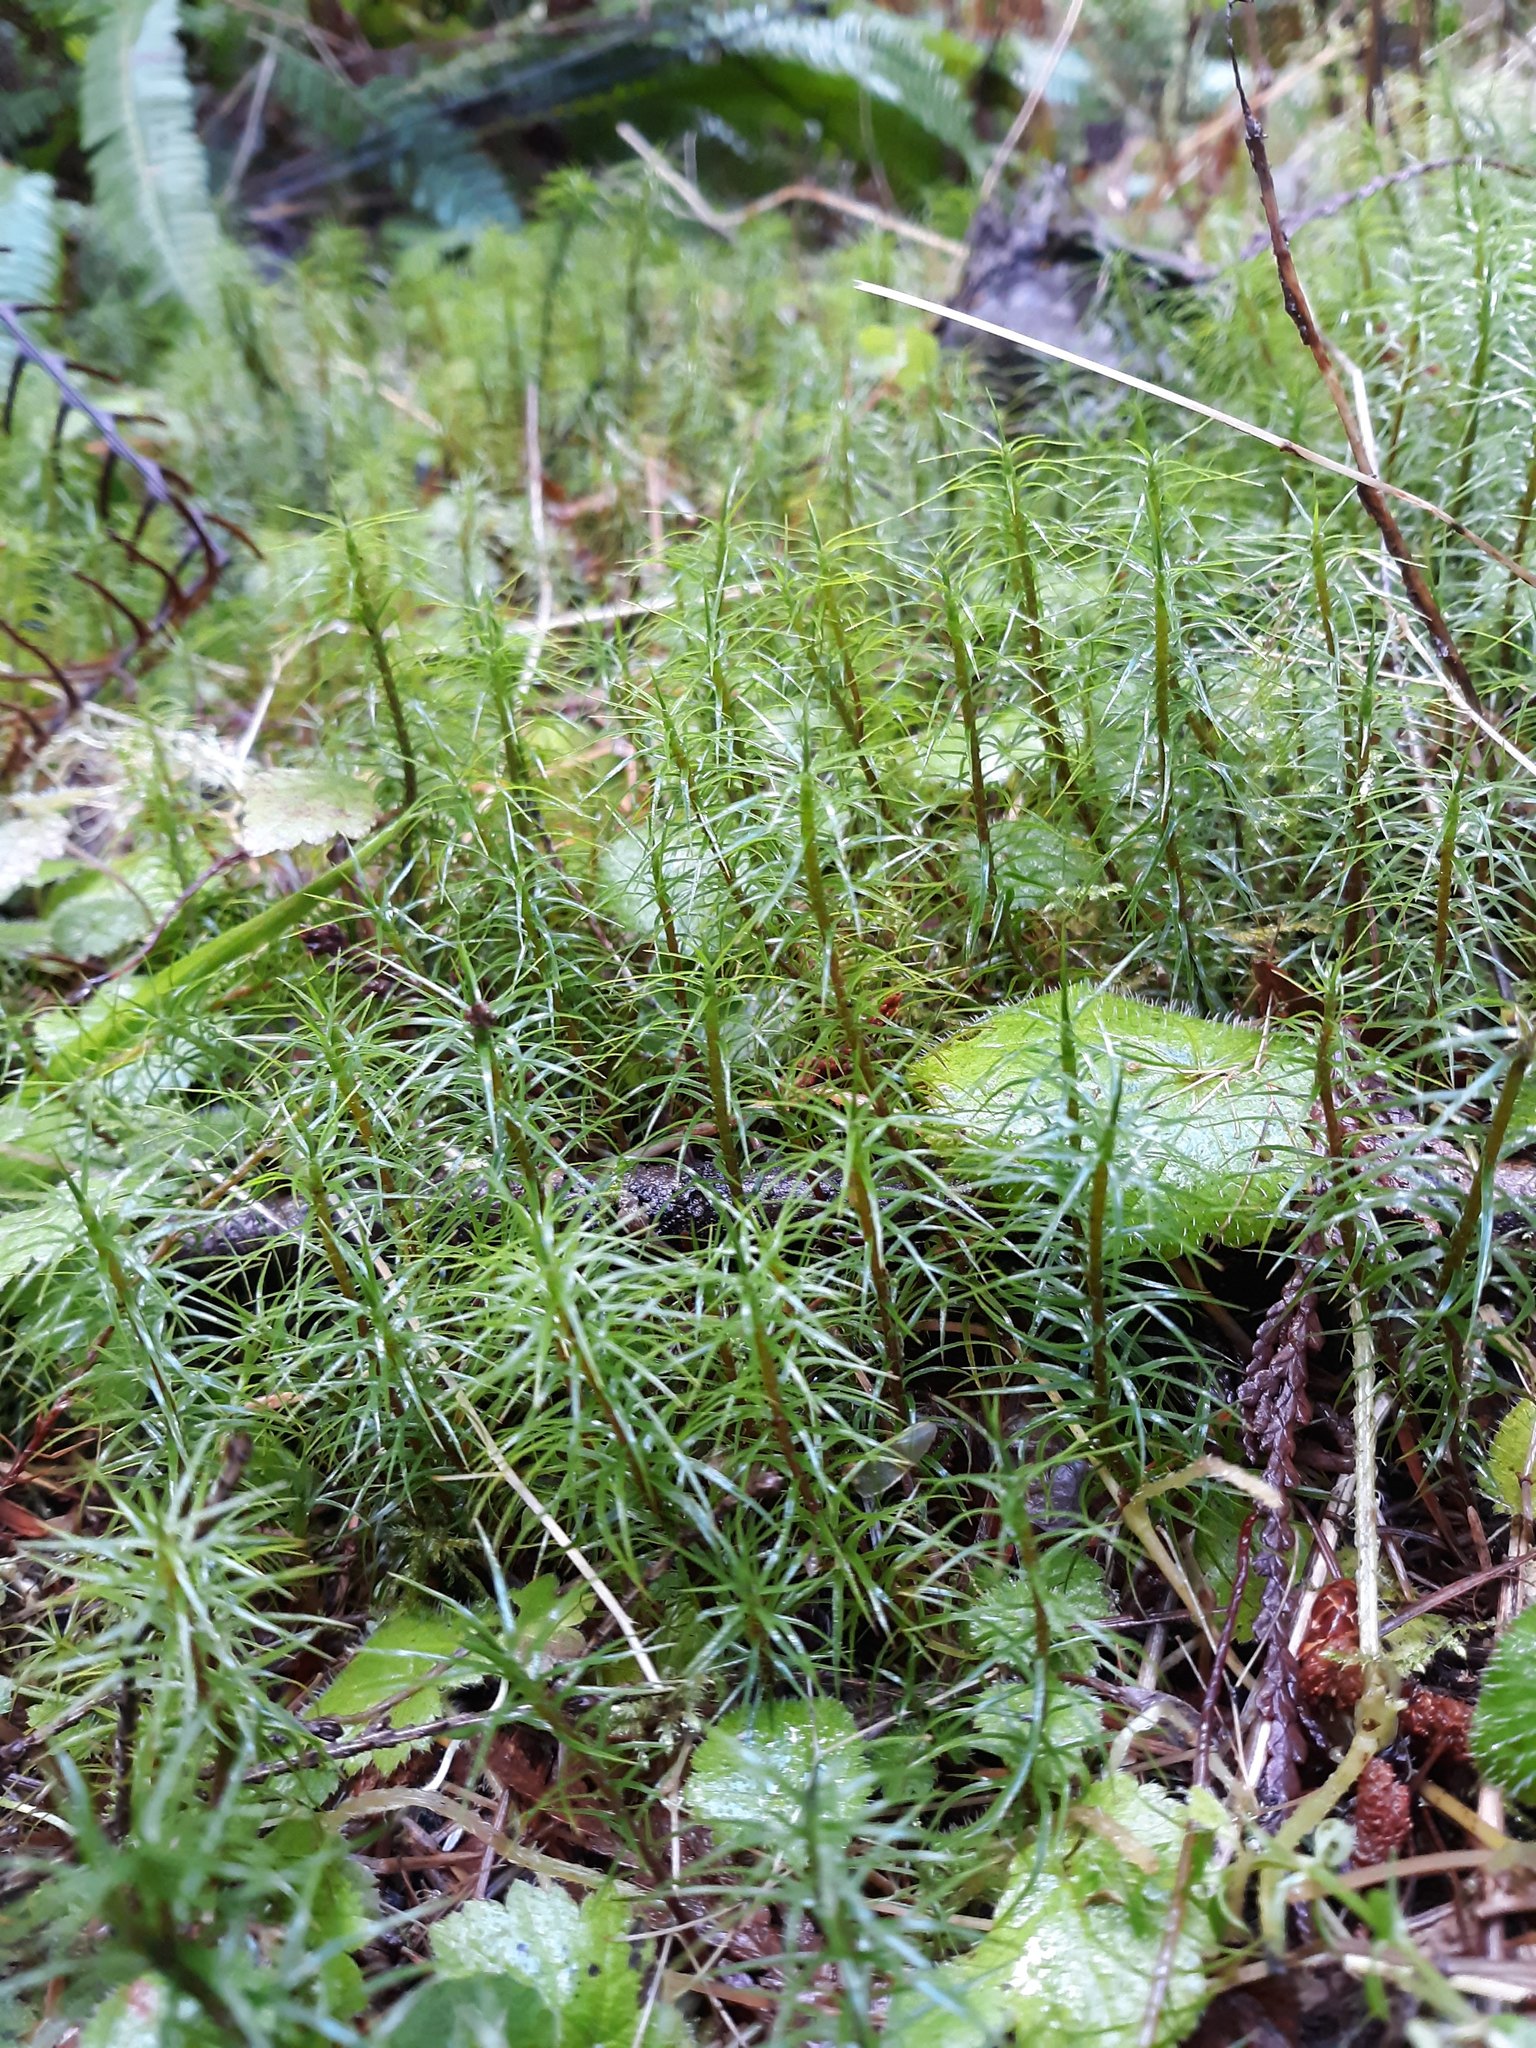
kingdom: Plantae
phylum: Bryophyta
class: Polytrichopsida
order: Polytrichales
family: Polytrichaceae
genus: Polytrichum
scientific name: Polytrichum commune
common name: Common haircap
